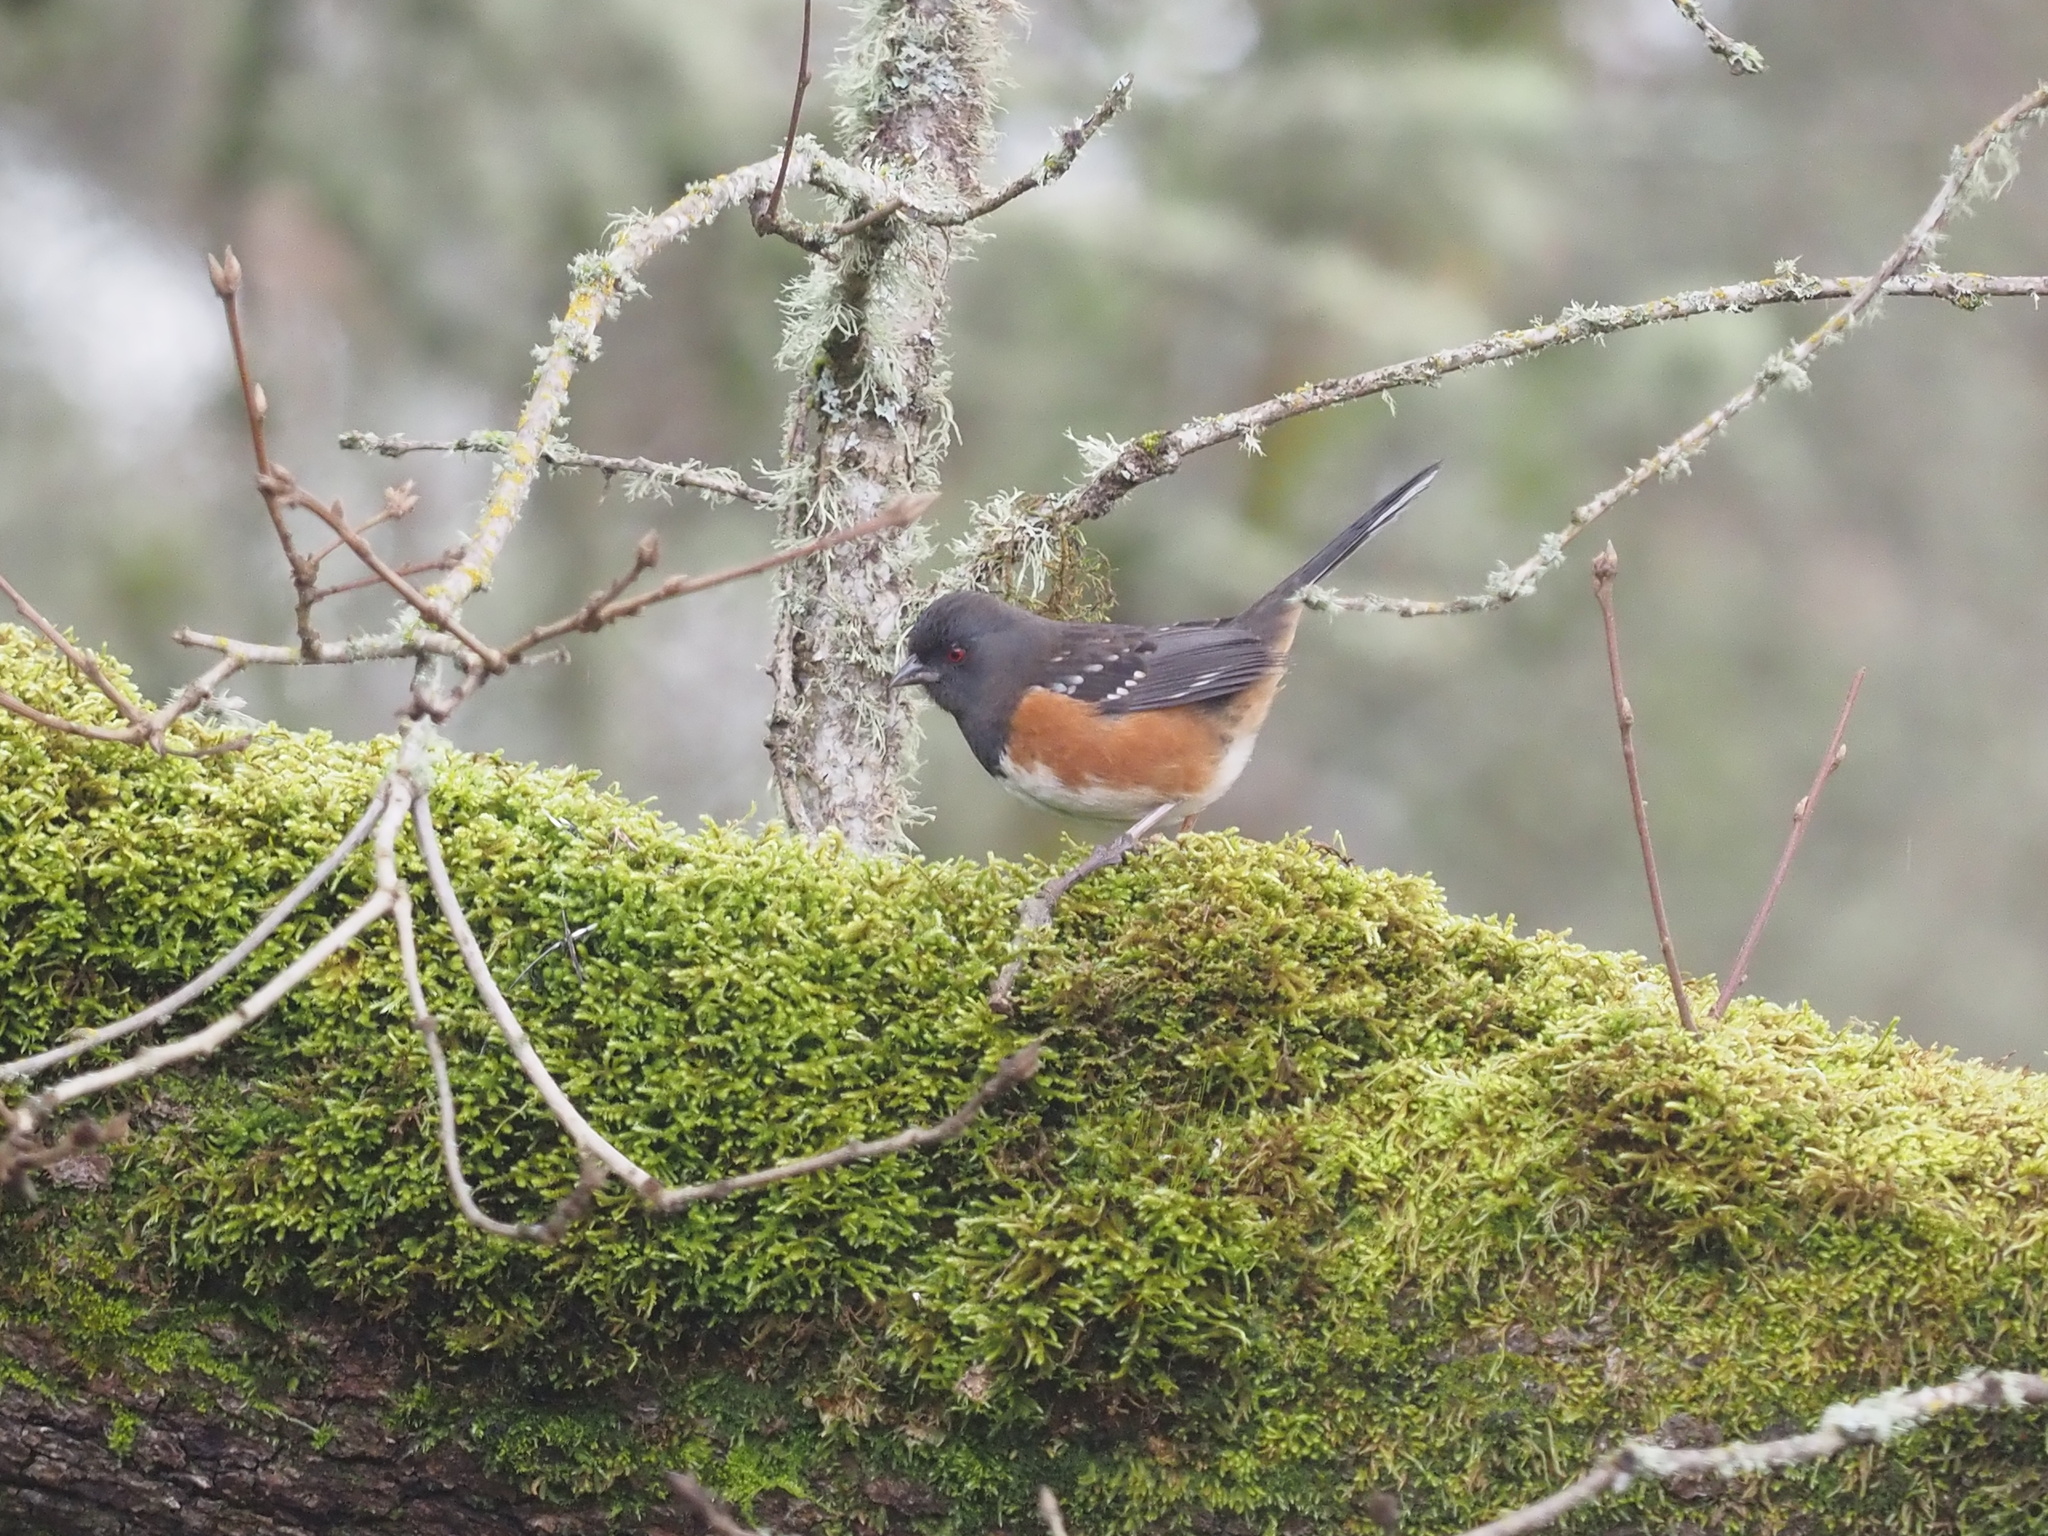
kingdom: Animalia
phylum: Chordata
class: Aves
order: Passeriformes
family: Passerellidae
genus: Pipilo
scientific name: Pipilo maculatus
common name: Spotted towhee
